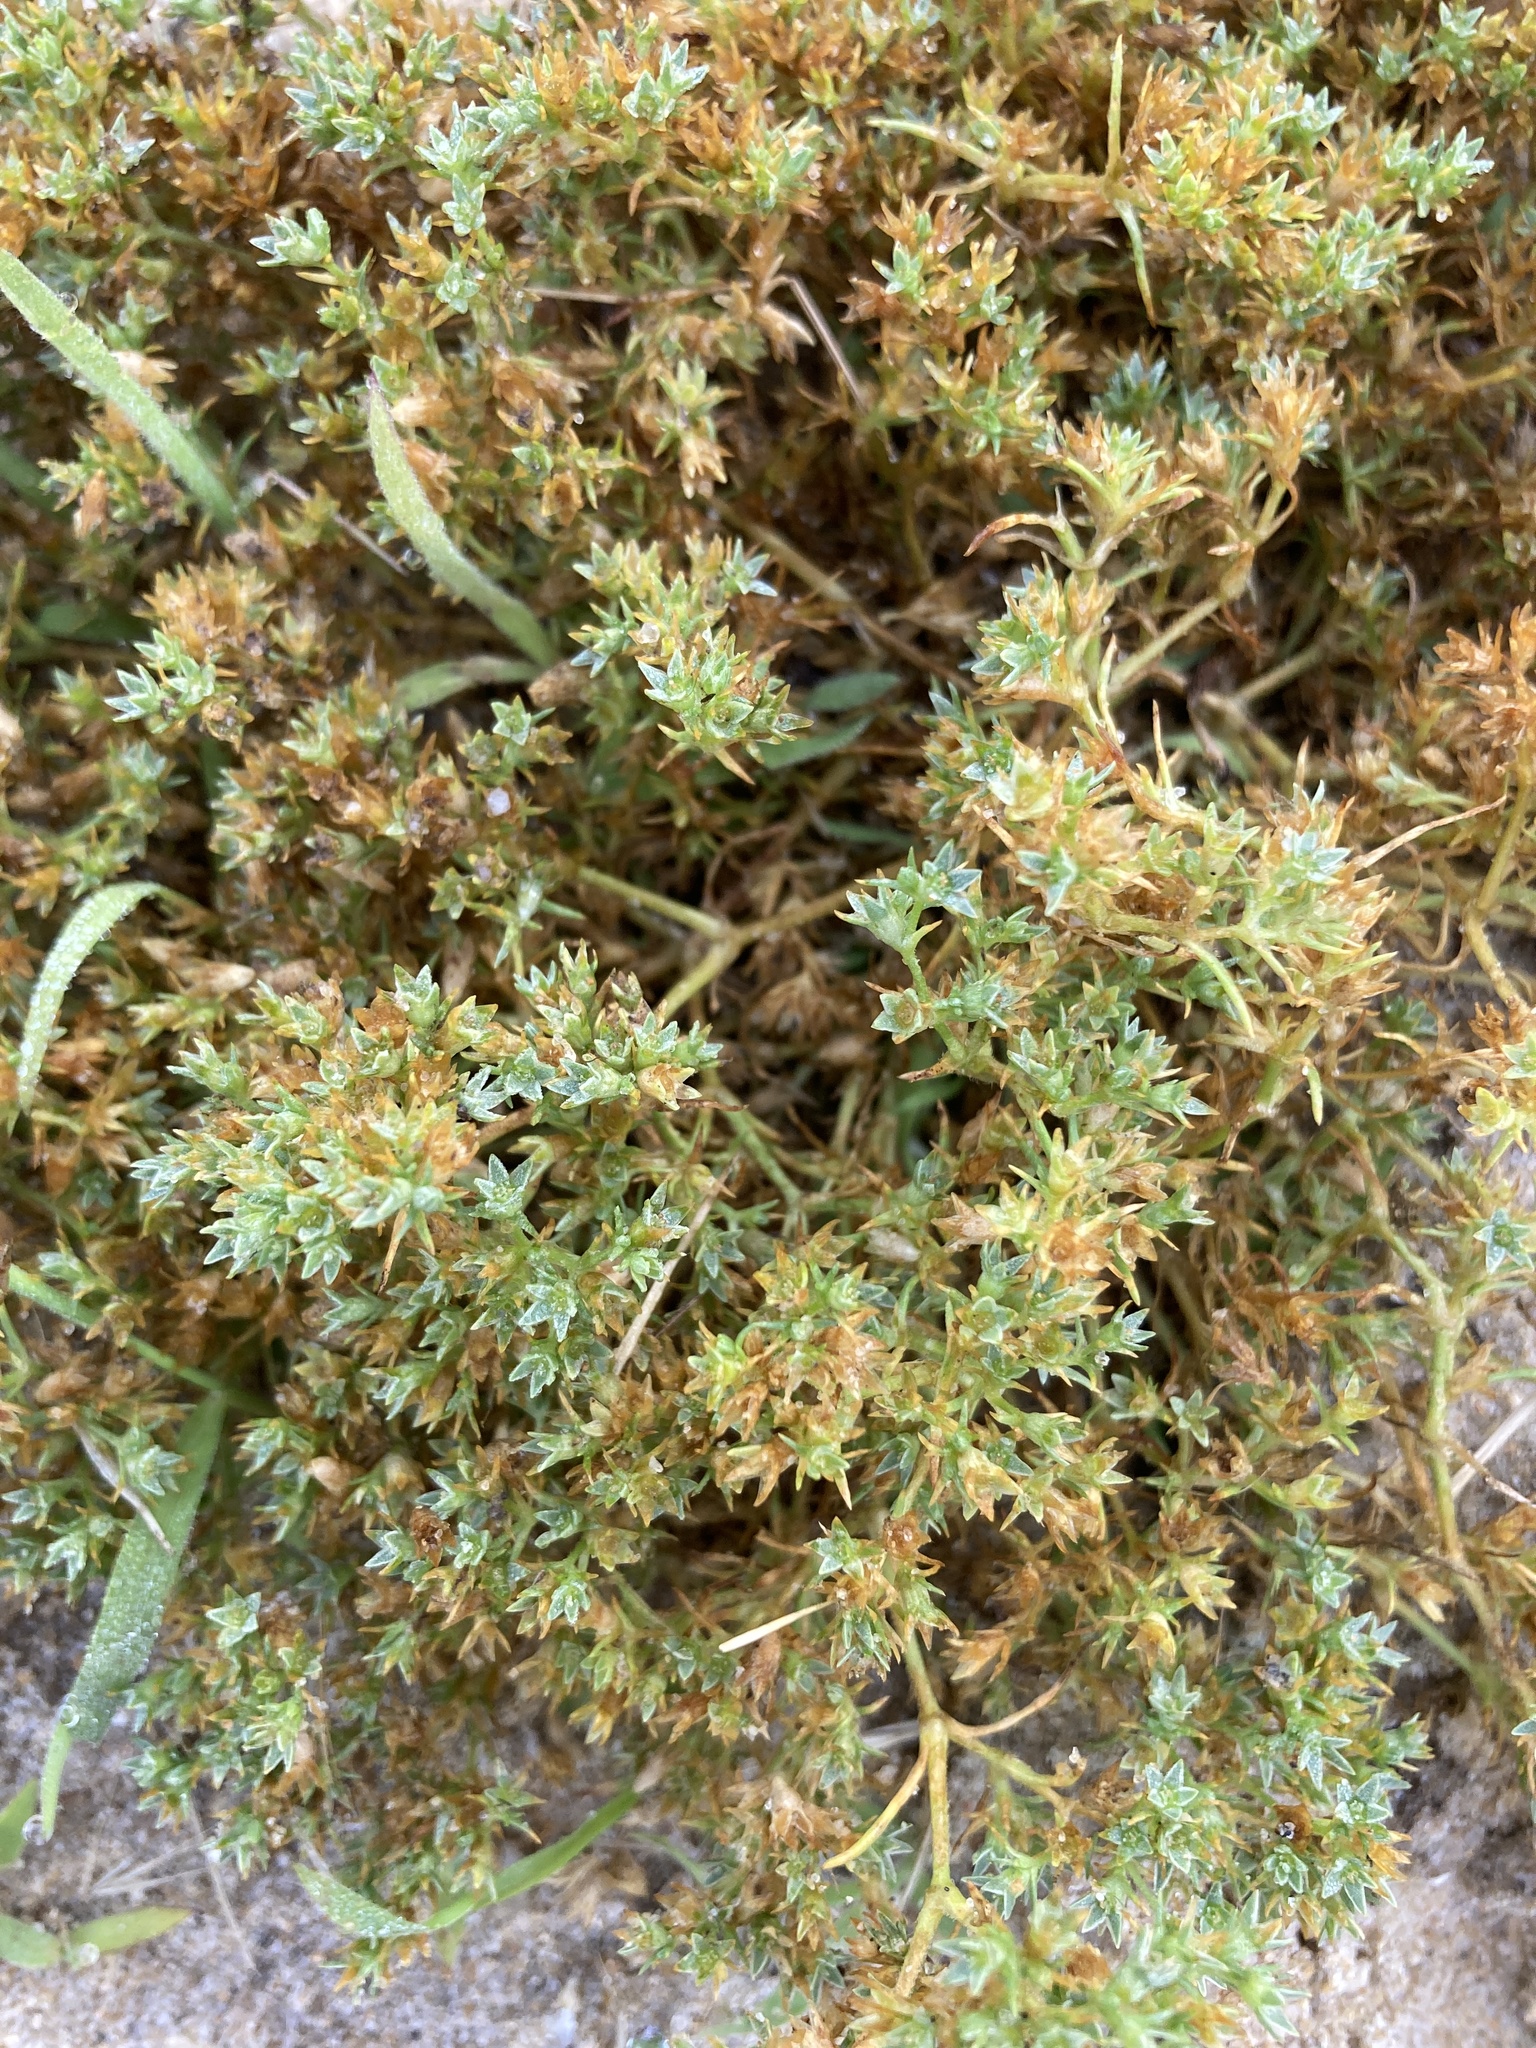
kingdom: Plantae
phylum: Tracheophyta
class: Magnoliopsida
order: Caryophyllales
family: Caryophyllaceae
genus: Scleranthus
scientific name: Scleranthus annuus
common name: Annual knawel
